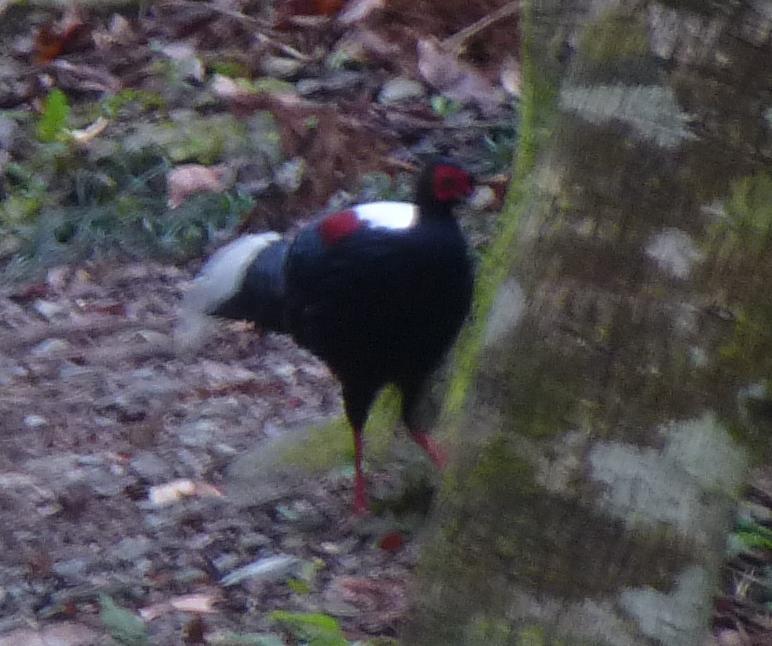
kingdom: Animalia
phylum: Chordata
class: Aves
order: Galliformes
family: Phasianidae
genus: Lophura
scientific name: Lophura swinhoii
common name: Swinhoe's pheasant
